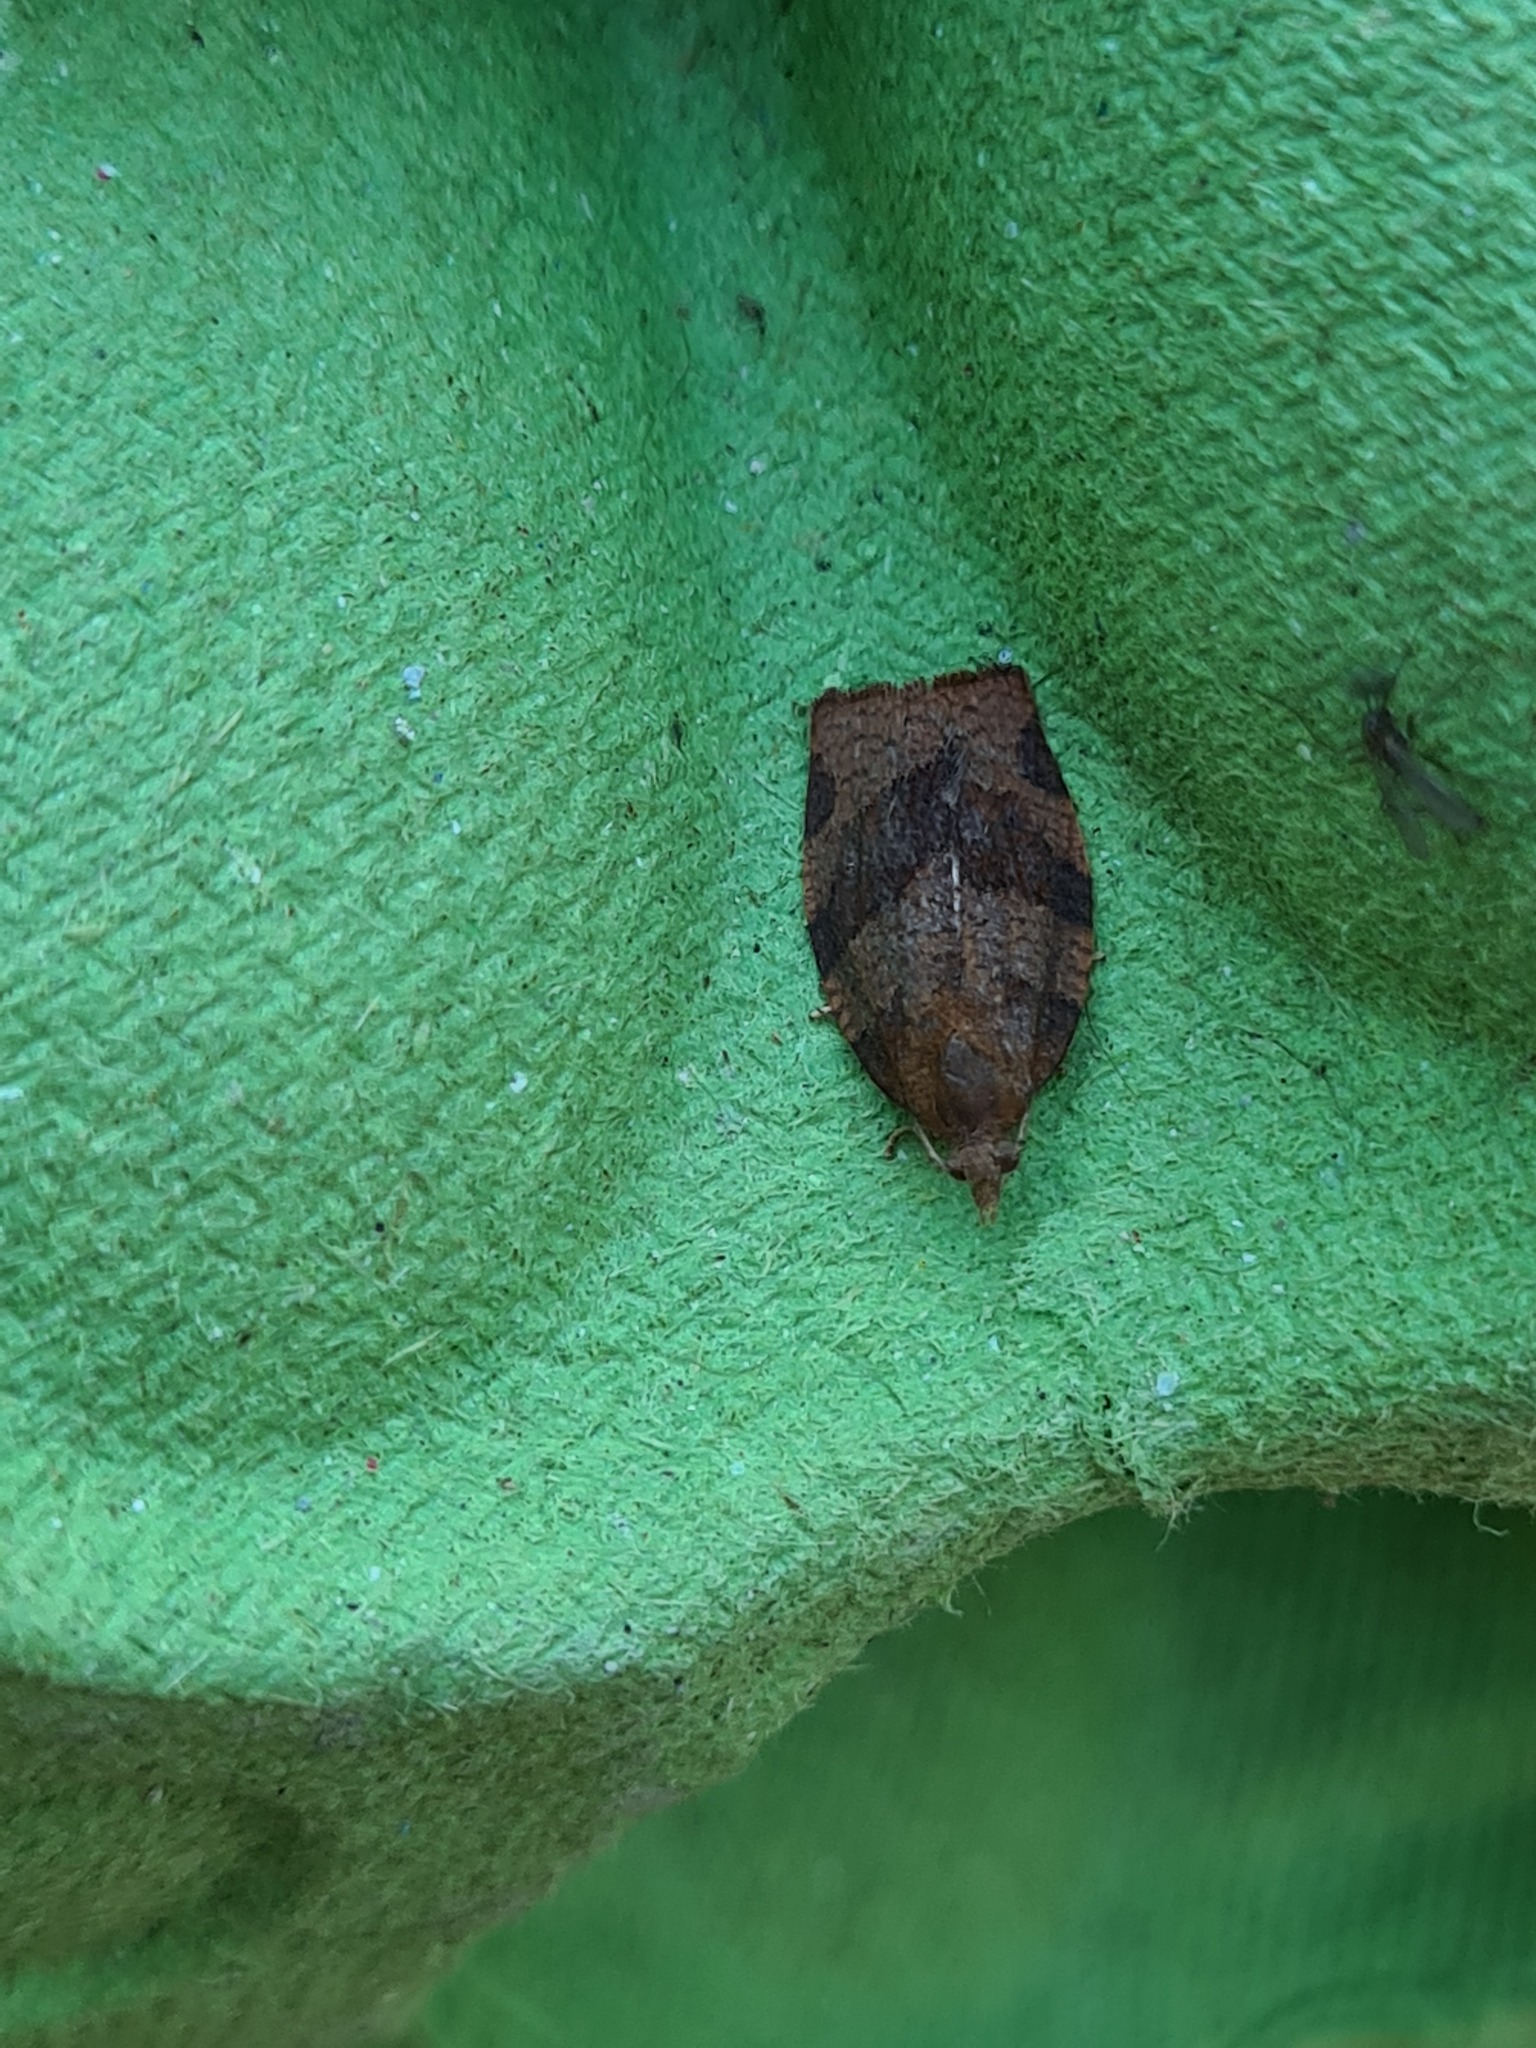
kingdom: Animalia
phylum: Arthropoda
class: Insecta
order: Lepidoptera
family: Tortricidae
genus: Pandemis
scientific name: Pandemis heparana
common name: Dark fruit-tree tortrix
